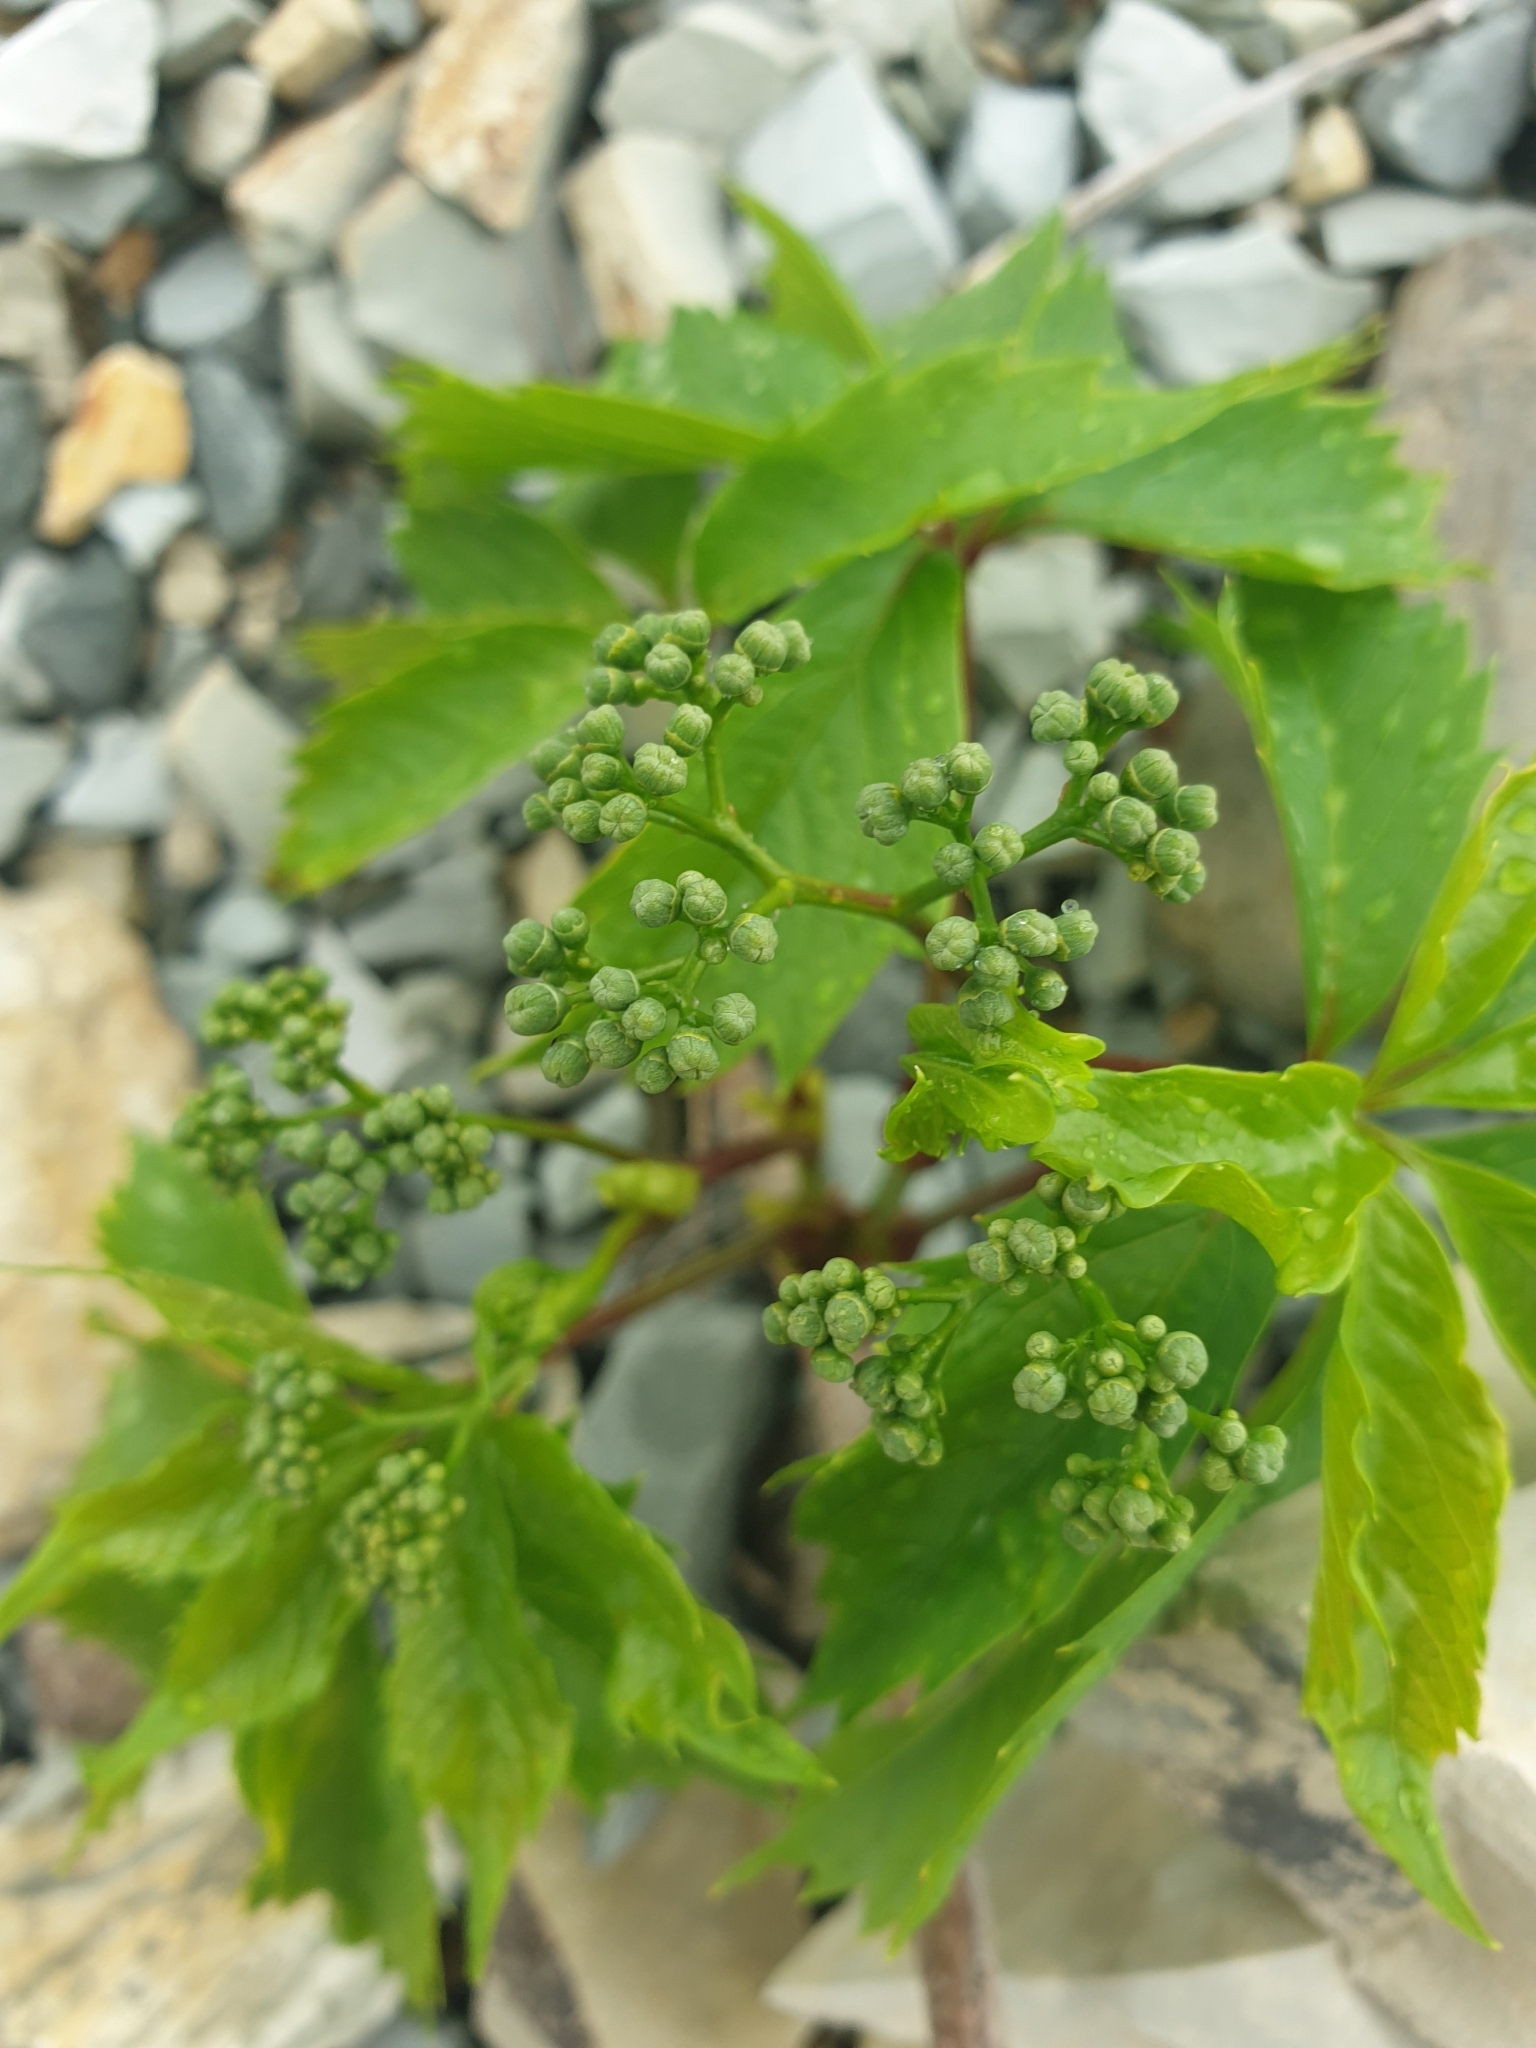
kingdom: Plantae
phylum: Tracheophyta
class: Magnoliopsida
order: Vitales
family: Vitaceae
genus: Parthenocissus
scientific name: Parthenocissus inserta
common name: False virginia-creeper
